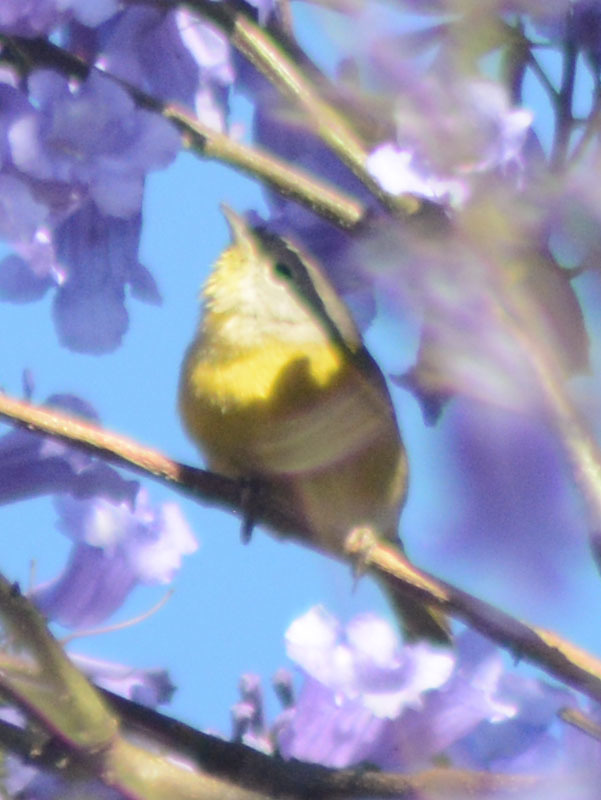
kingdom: Animalia
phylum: Chordata
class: Aves
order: Passeriformes
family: Parulidae
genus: Leiothlypis
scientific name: Leiothlypis ruficapilla
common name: Nashville warbler
